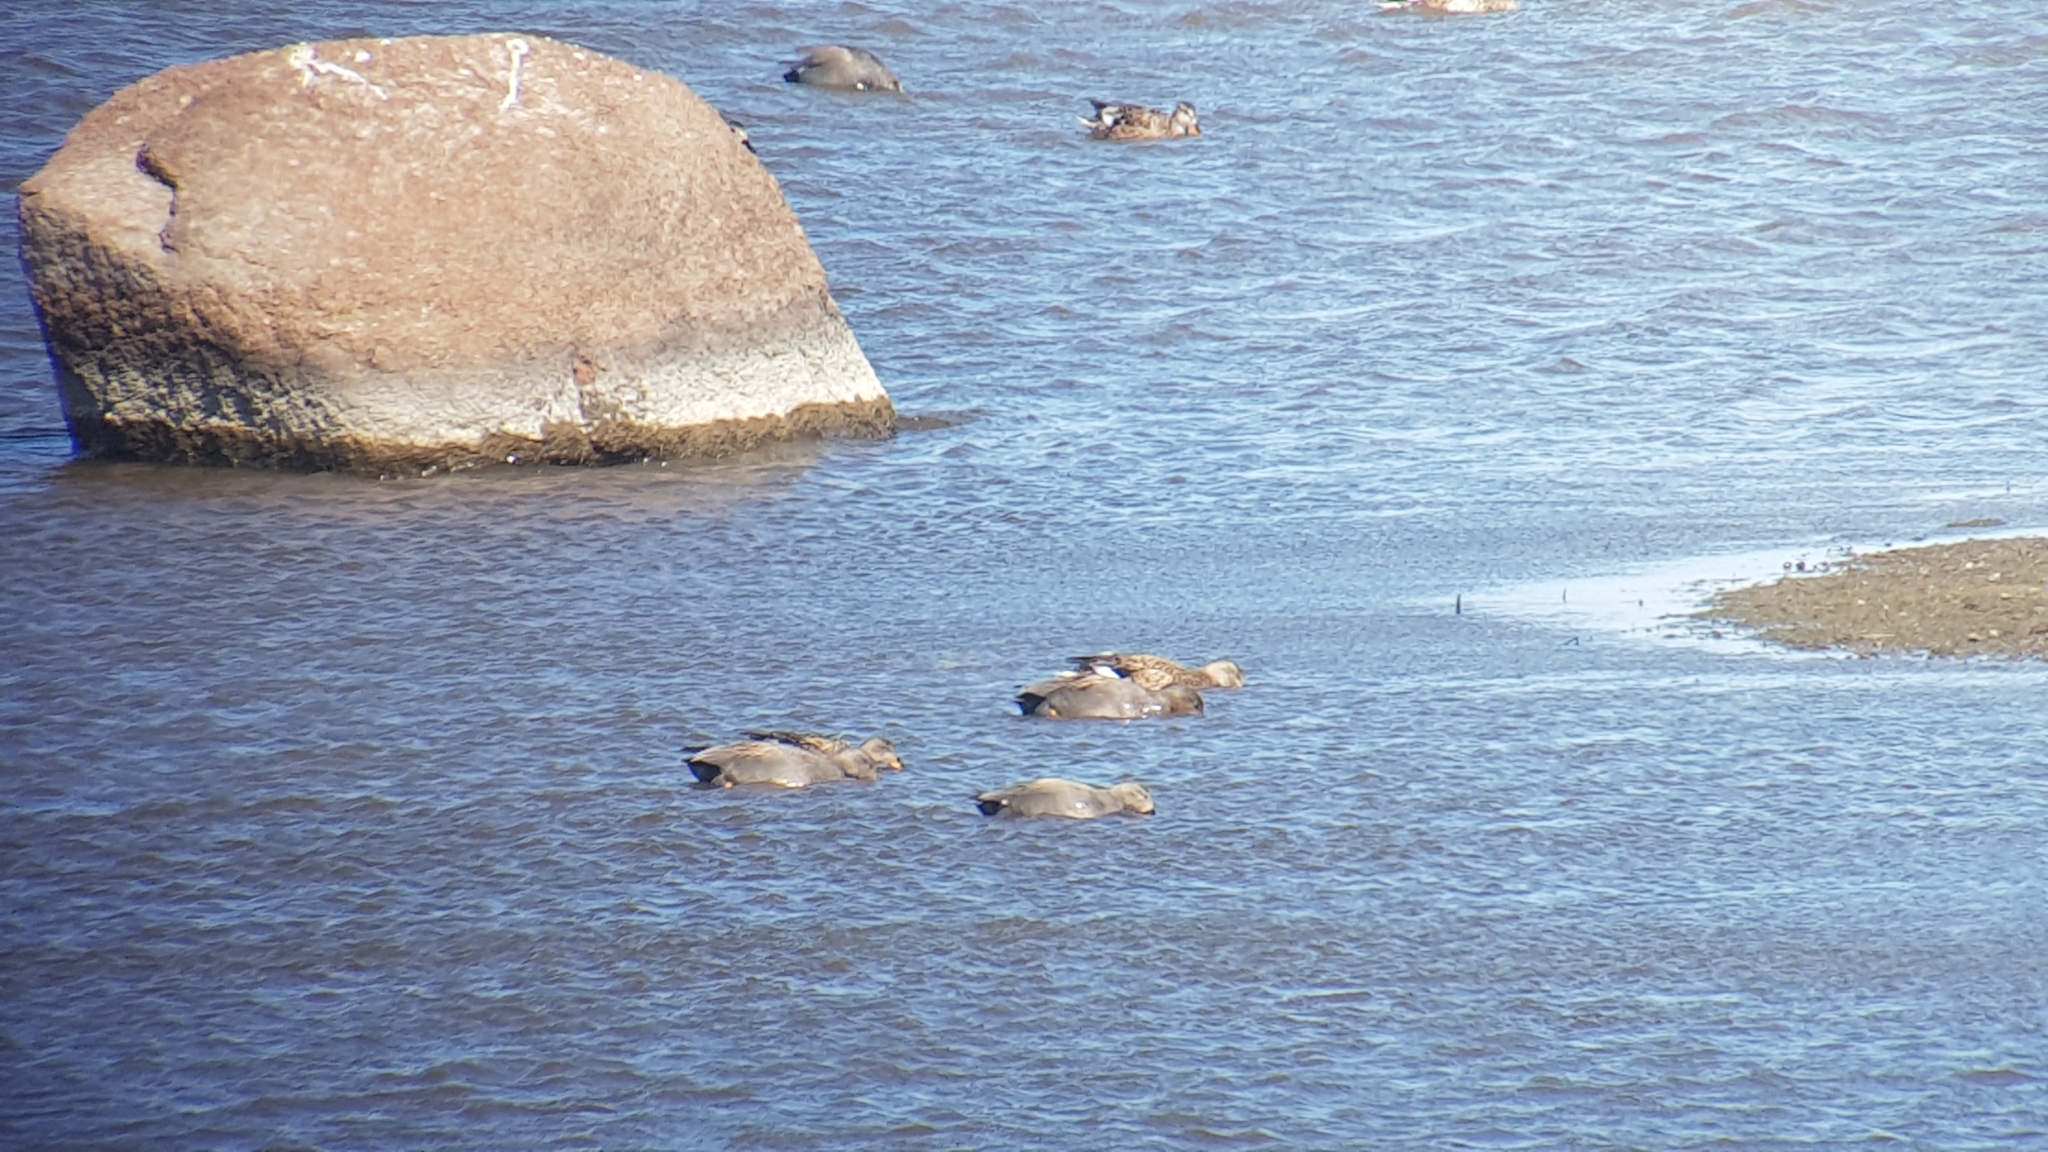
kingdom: Animalia
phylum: Chordata
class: Aves
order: Anseriformes
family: Anatidae
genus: Mareca
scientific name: Mareca strepera
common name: Gadwall
